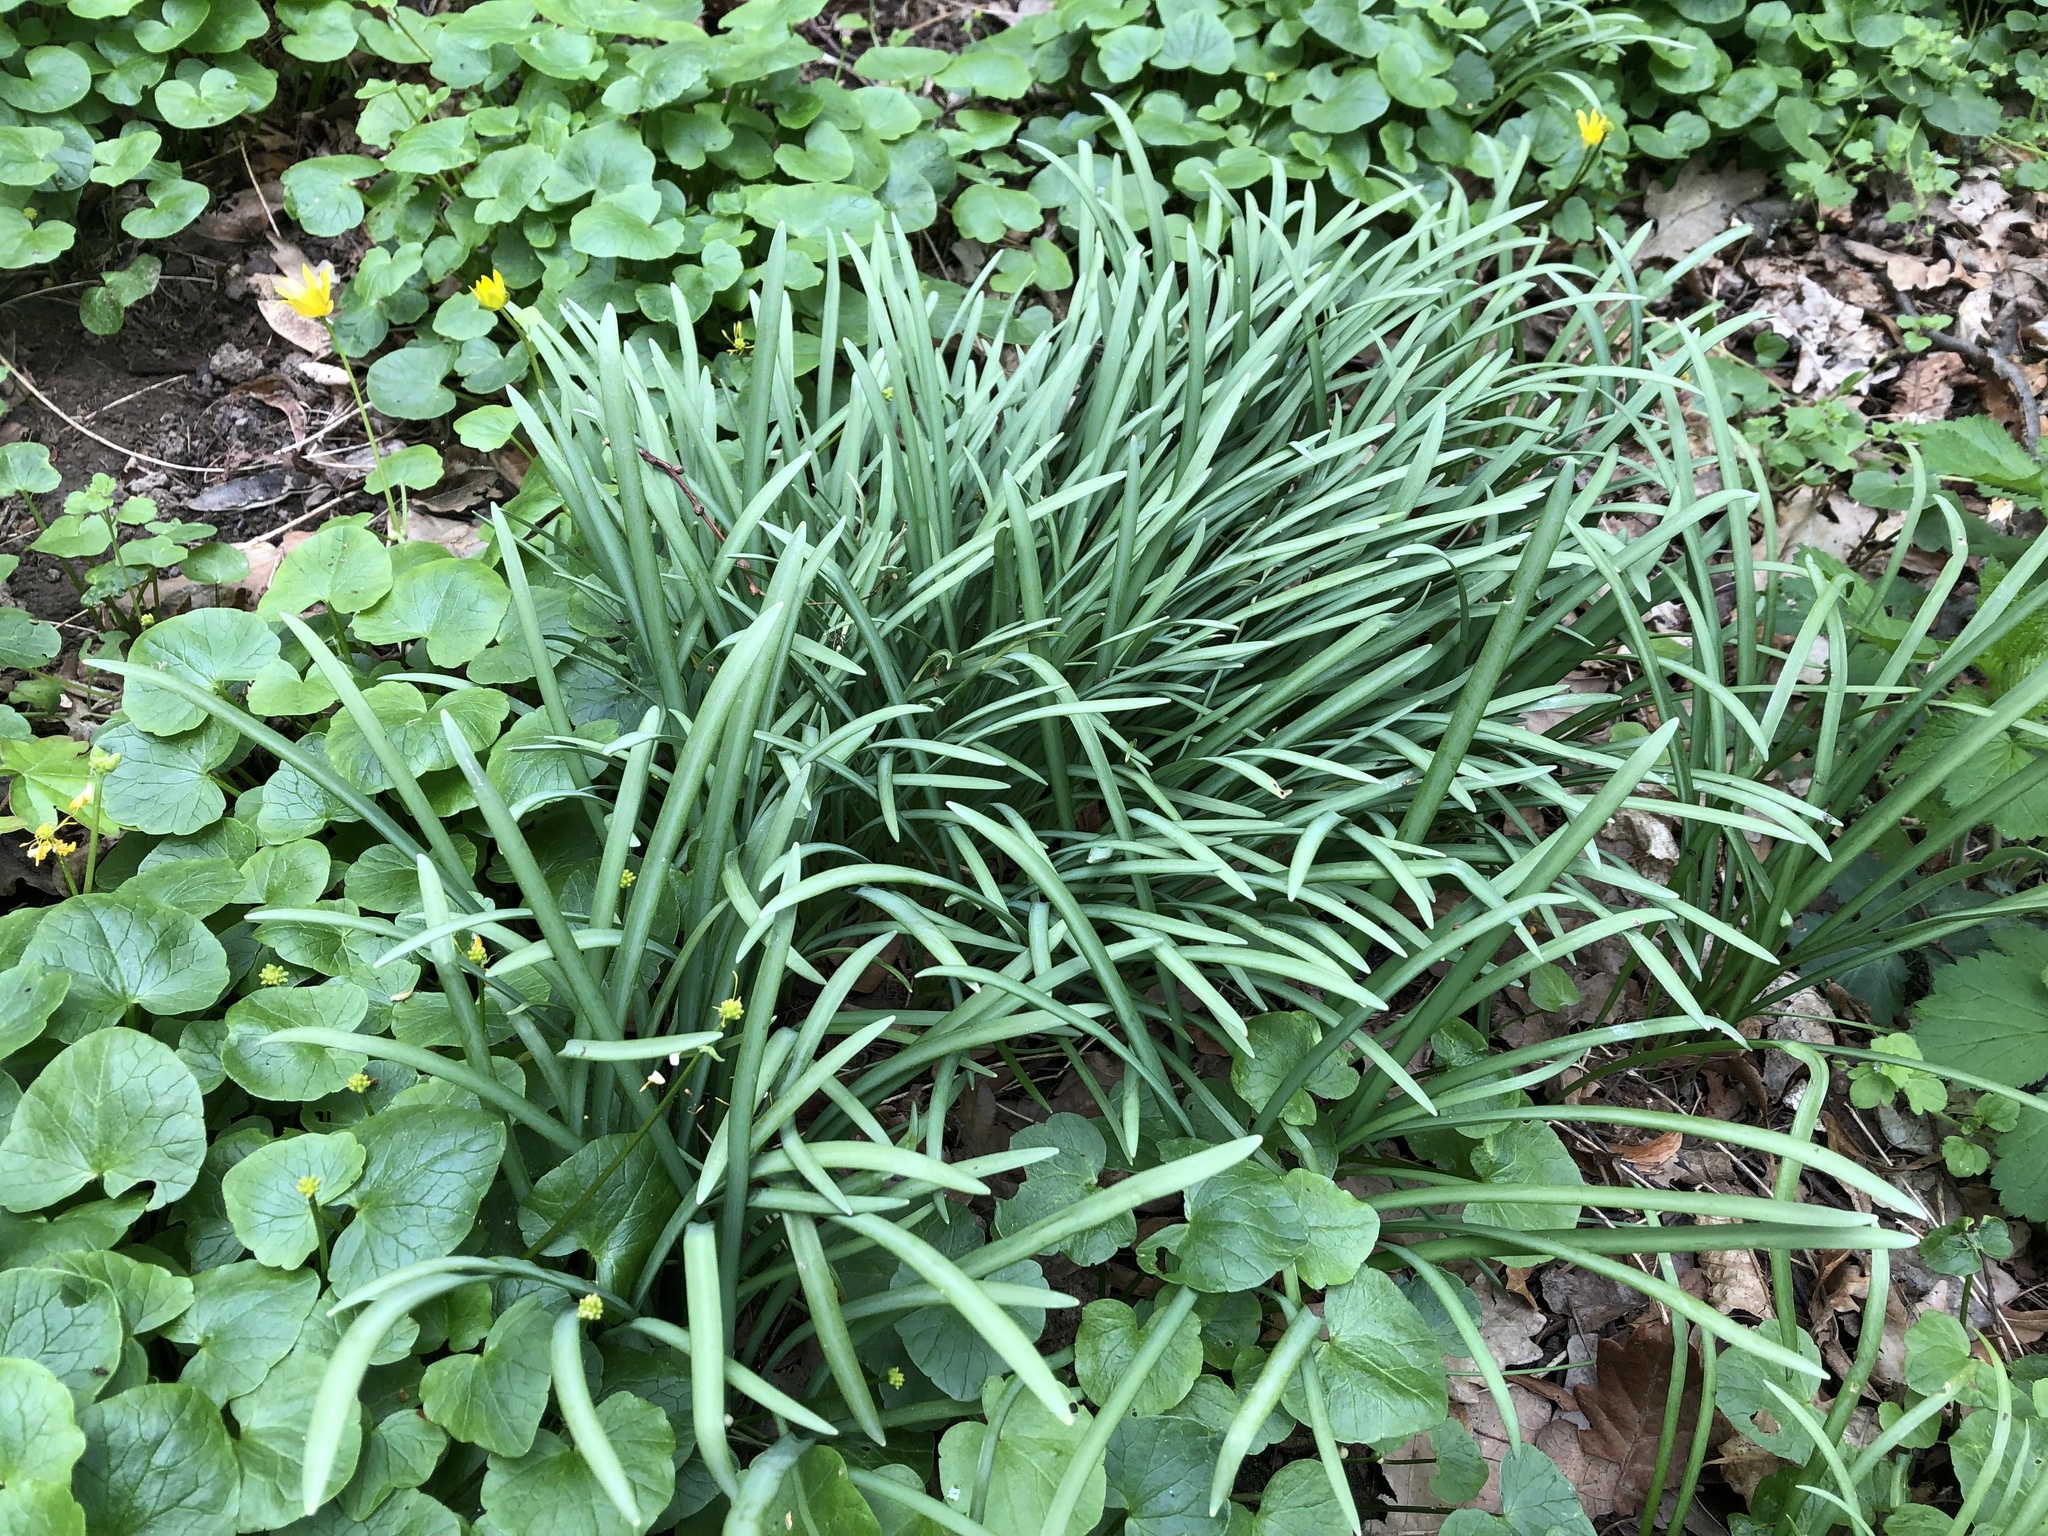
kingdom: Plantae
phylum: Tracheophyta
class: Liliopsida
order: Asparagales
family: Amaryllidaceae
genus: Galanthus
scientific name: Galanthus nivalis
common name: Snowdrop
